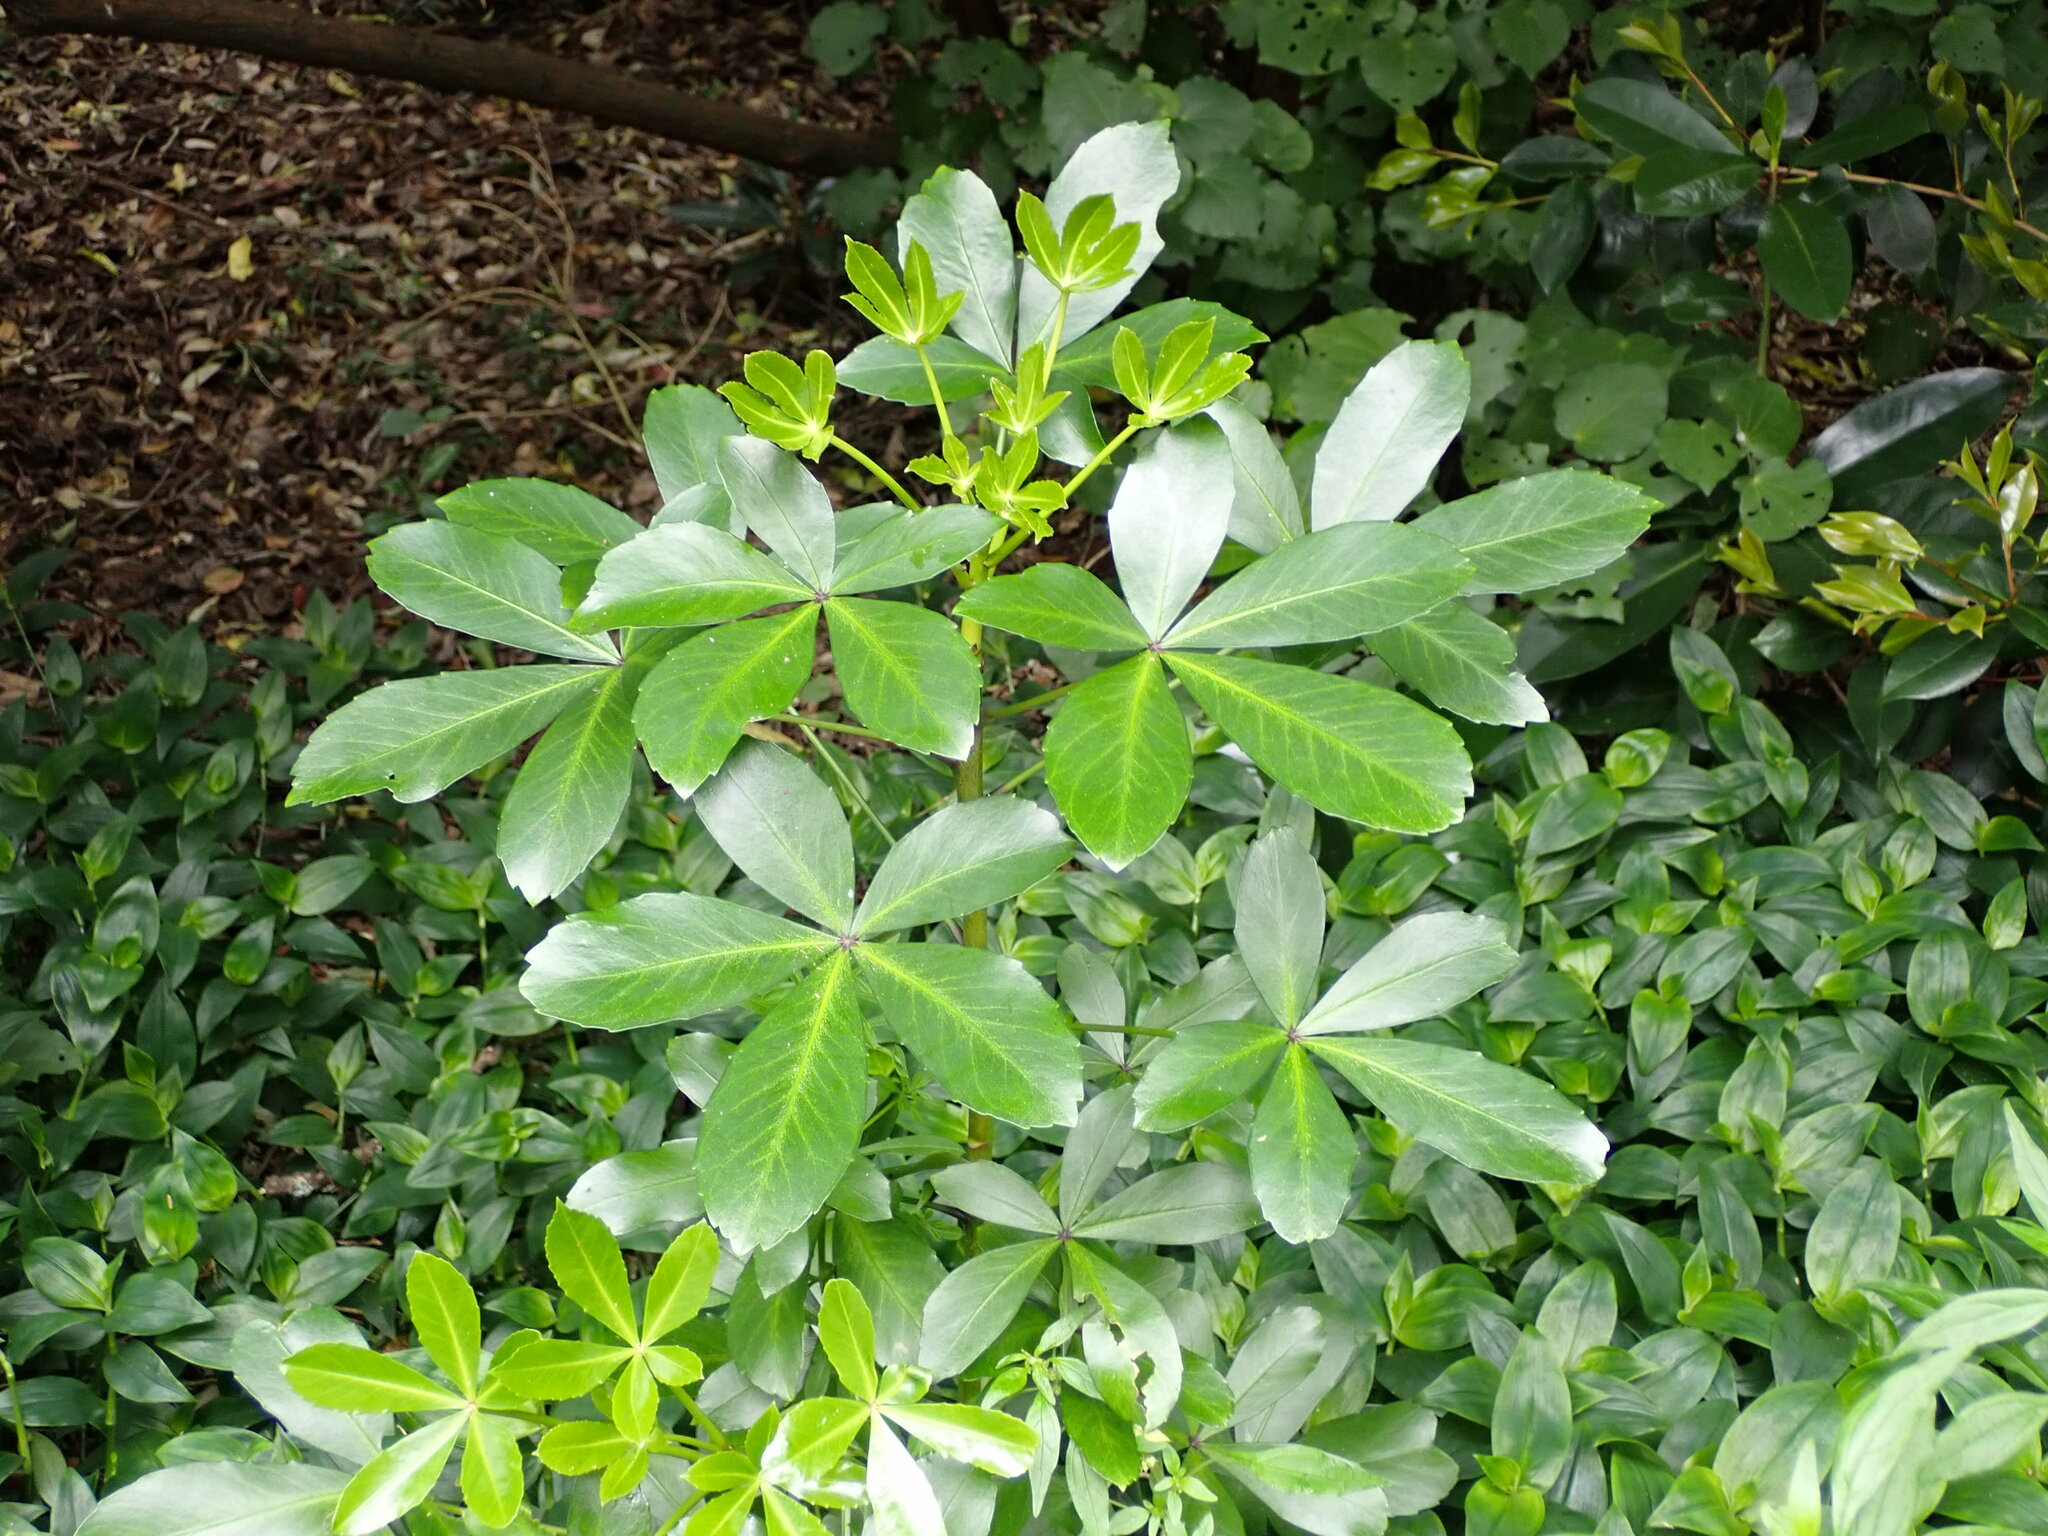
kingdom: Plantae
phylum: Tracheophyta
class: Magnoliopsida
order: Apiales
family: Araliaceae
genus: Pseudopanax
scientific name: Pseudopanax lessonii
